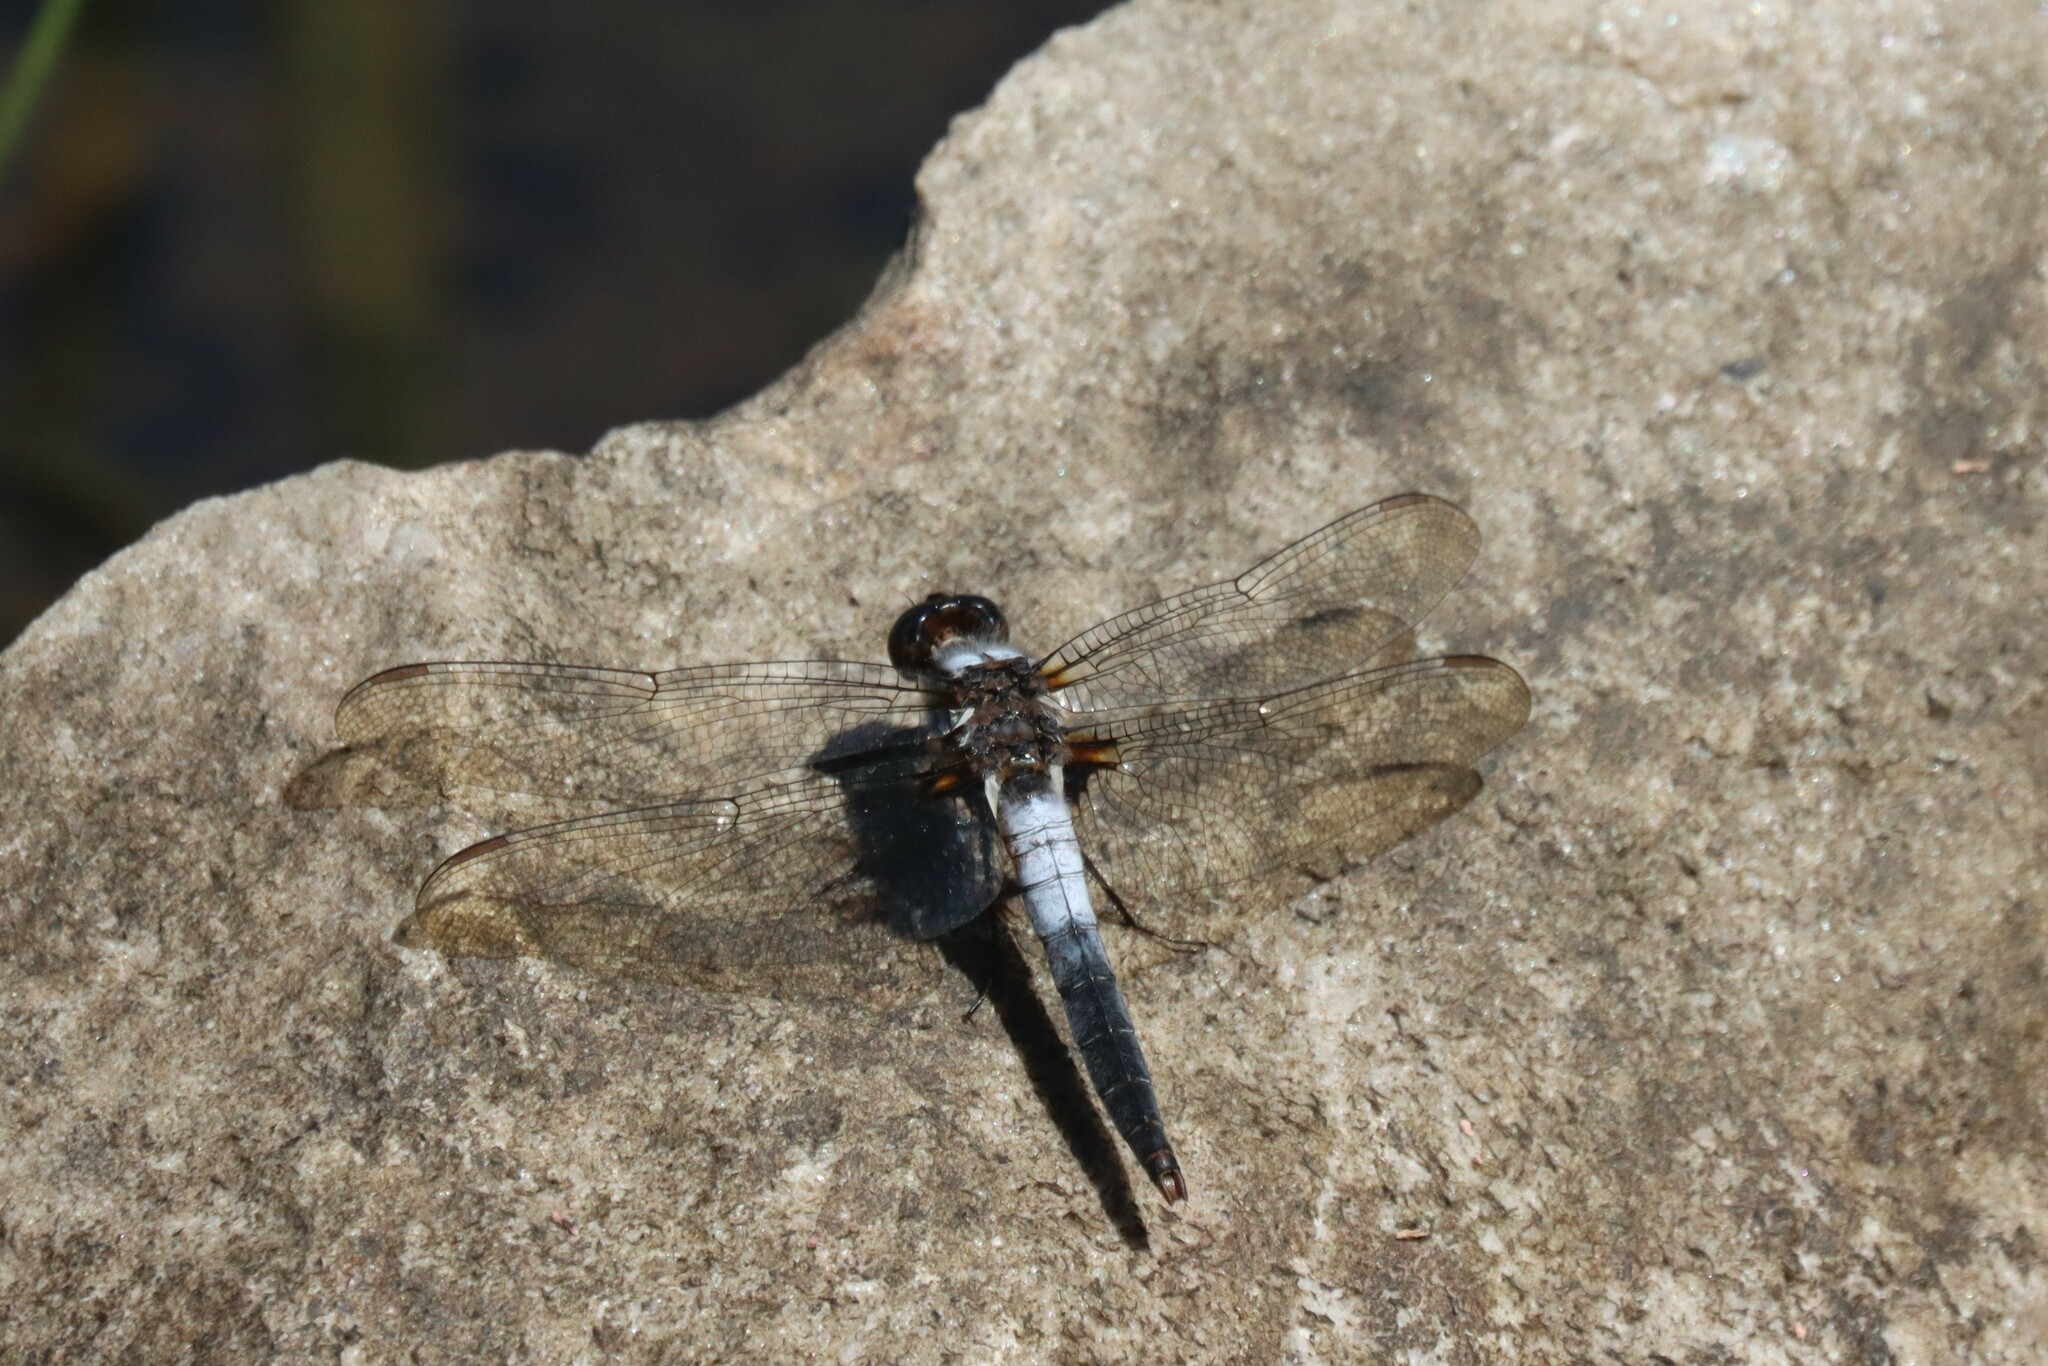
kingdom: Animalia
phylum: Arthropoda
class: Insecta
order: Odonata
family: Libellulidae
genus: Ladona
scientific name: Ladona julia
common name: Chalk-fronted corporal
